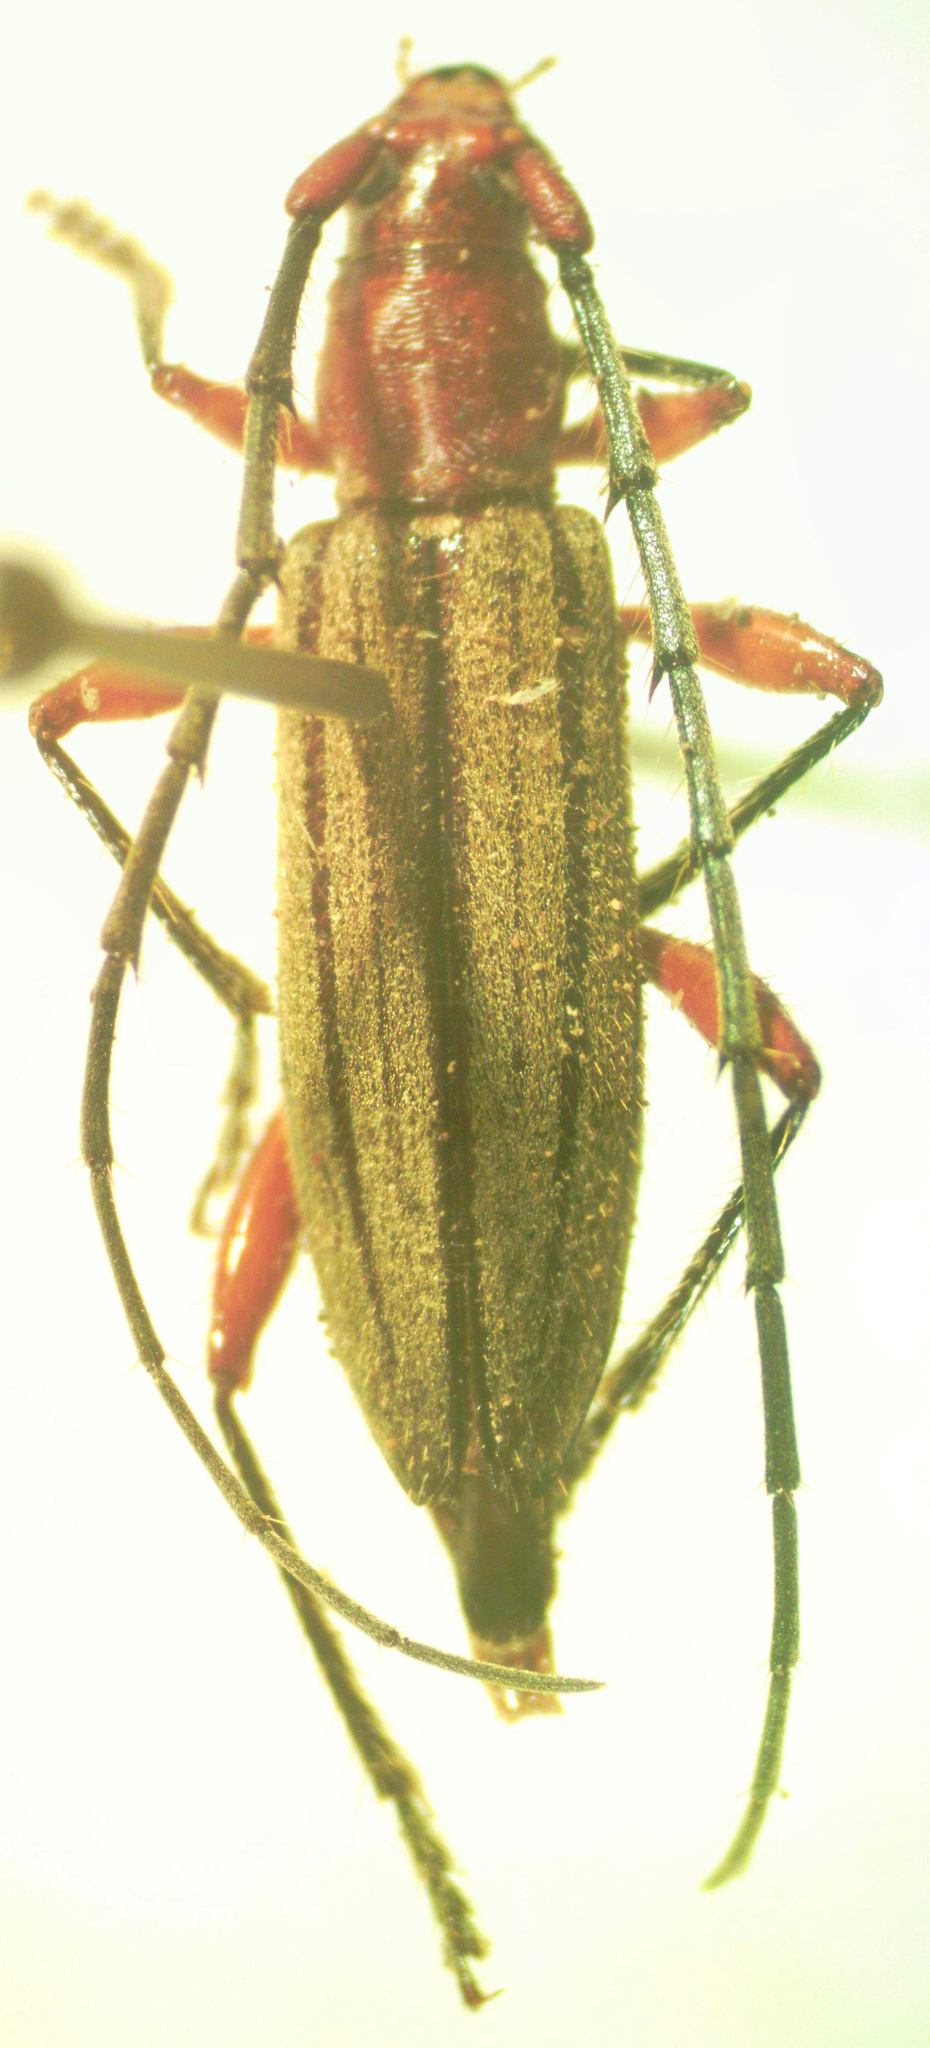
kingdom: Animalia
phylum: Arthropoda
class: Insecta
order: Coleoptera
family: Cerambycidae
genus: Ironeus
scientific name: Ironeus pulcher
